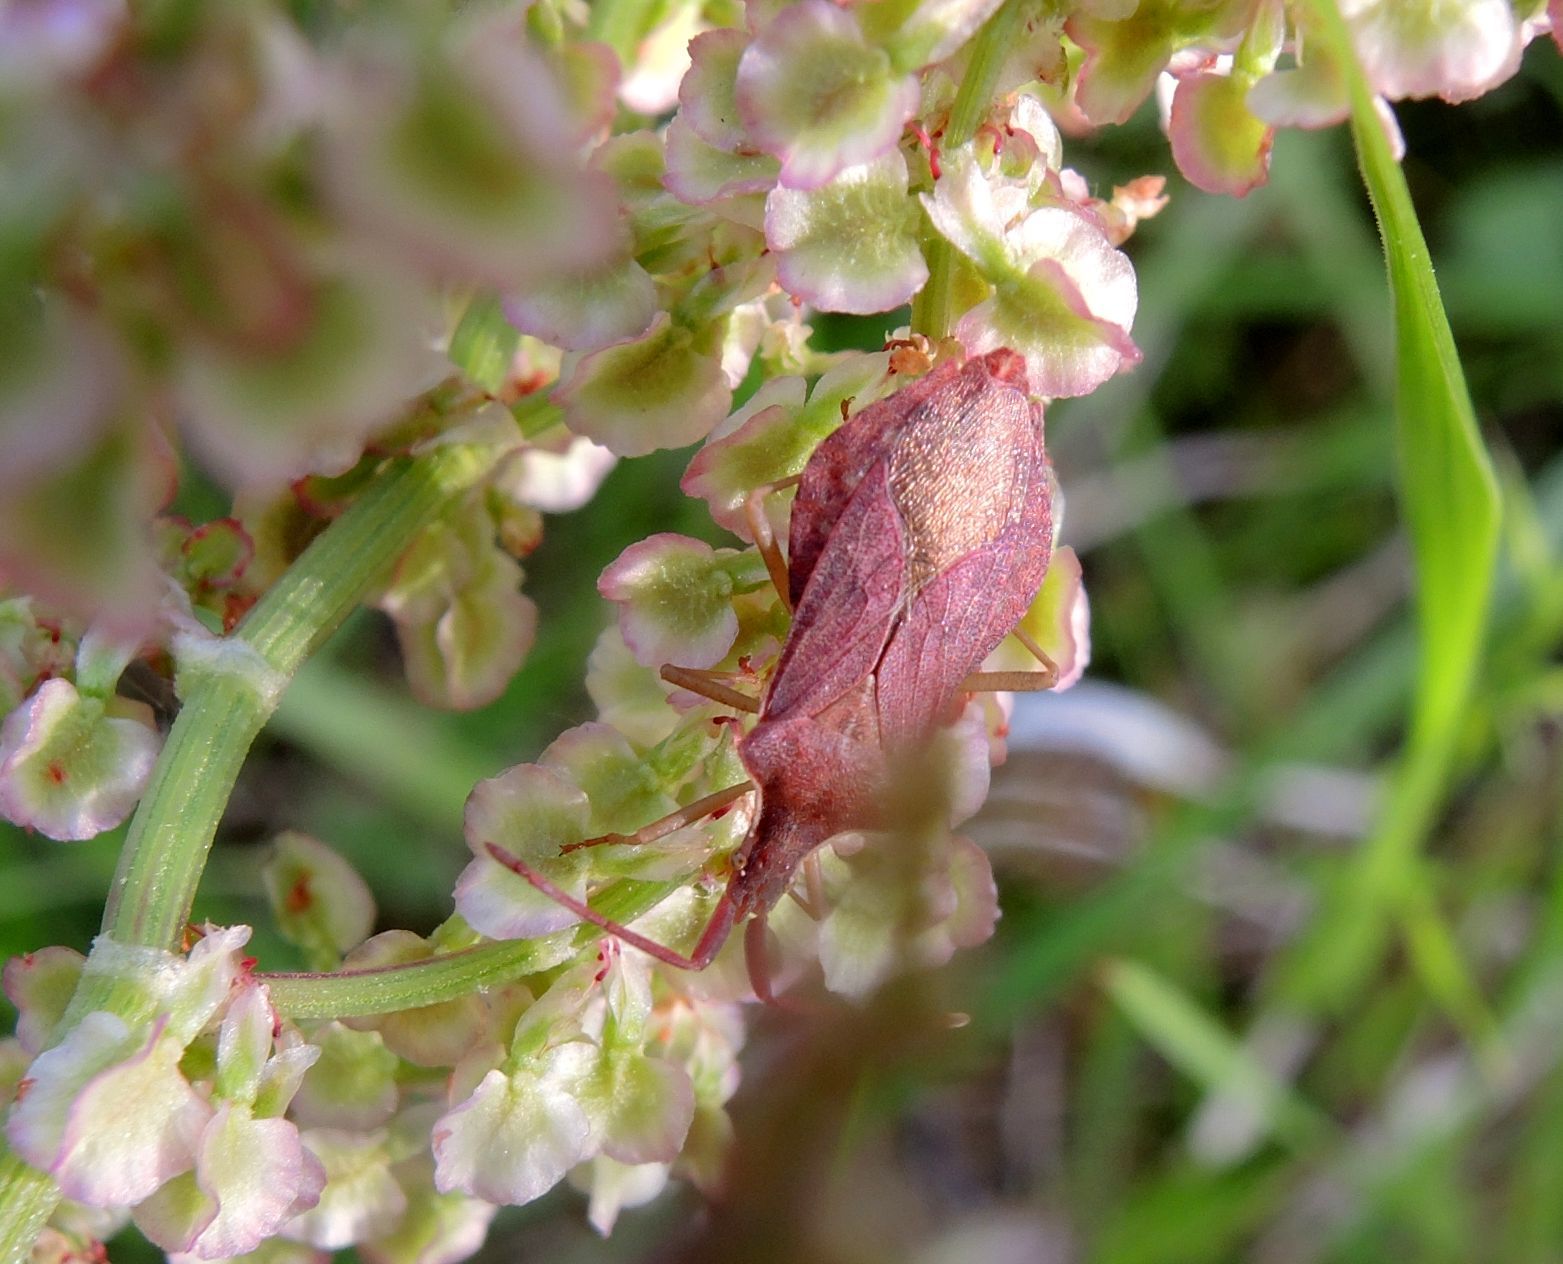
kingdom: Animalia
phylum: Arthropoda
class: Insecta
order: Hemiptera
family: Coreidae
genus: Haploprocta
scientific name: Haploprocta sulcicornis
